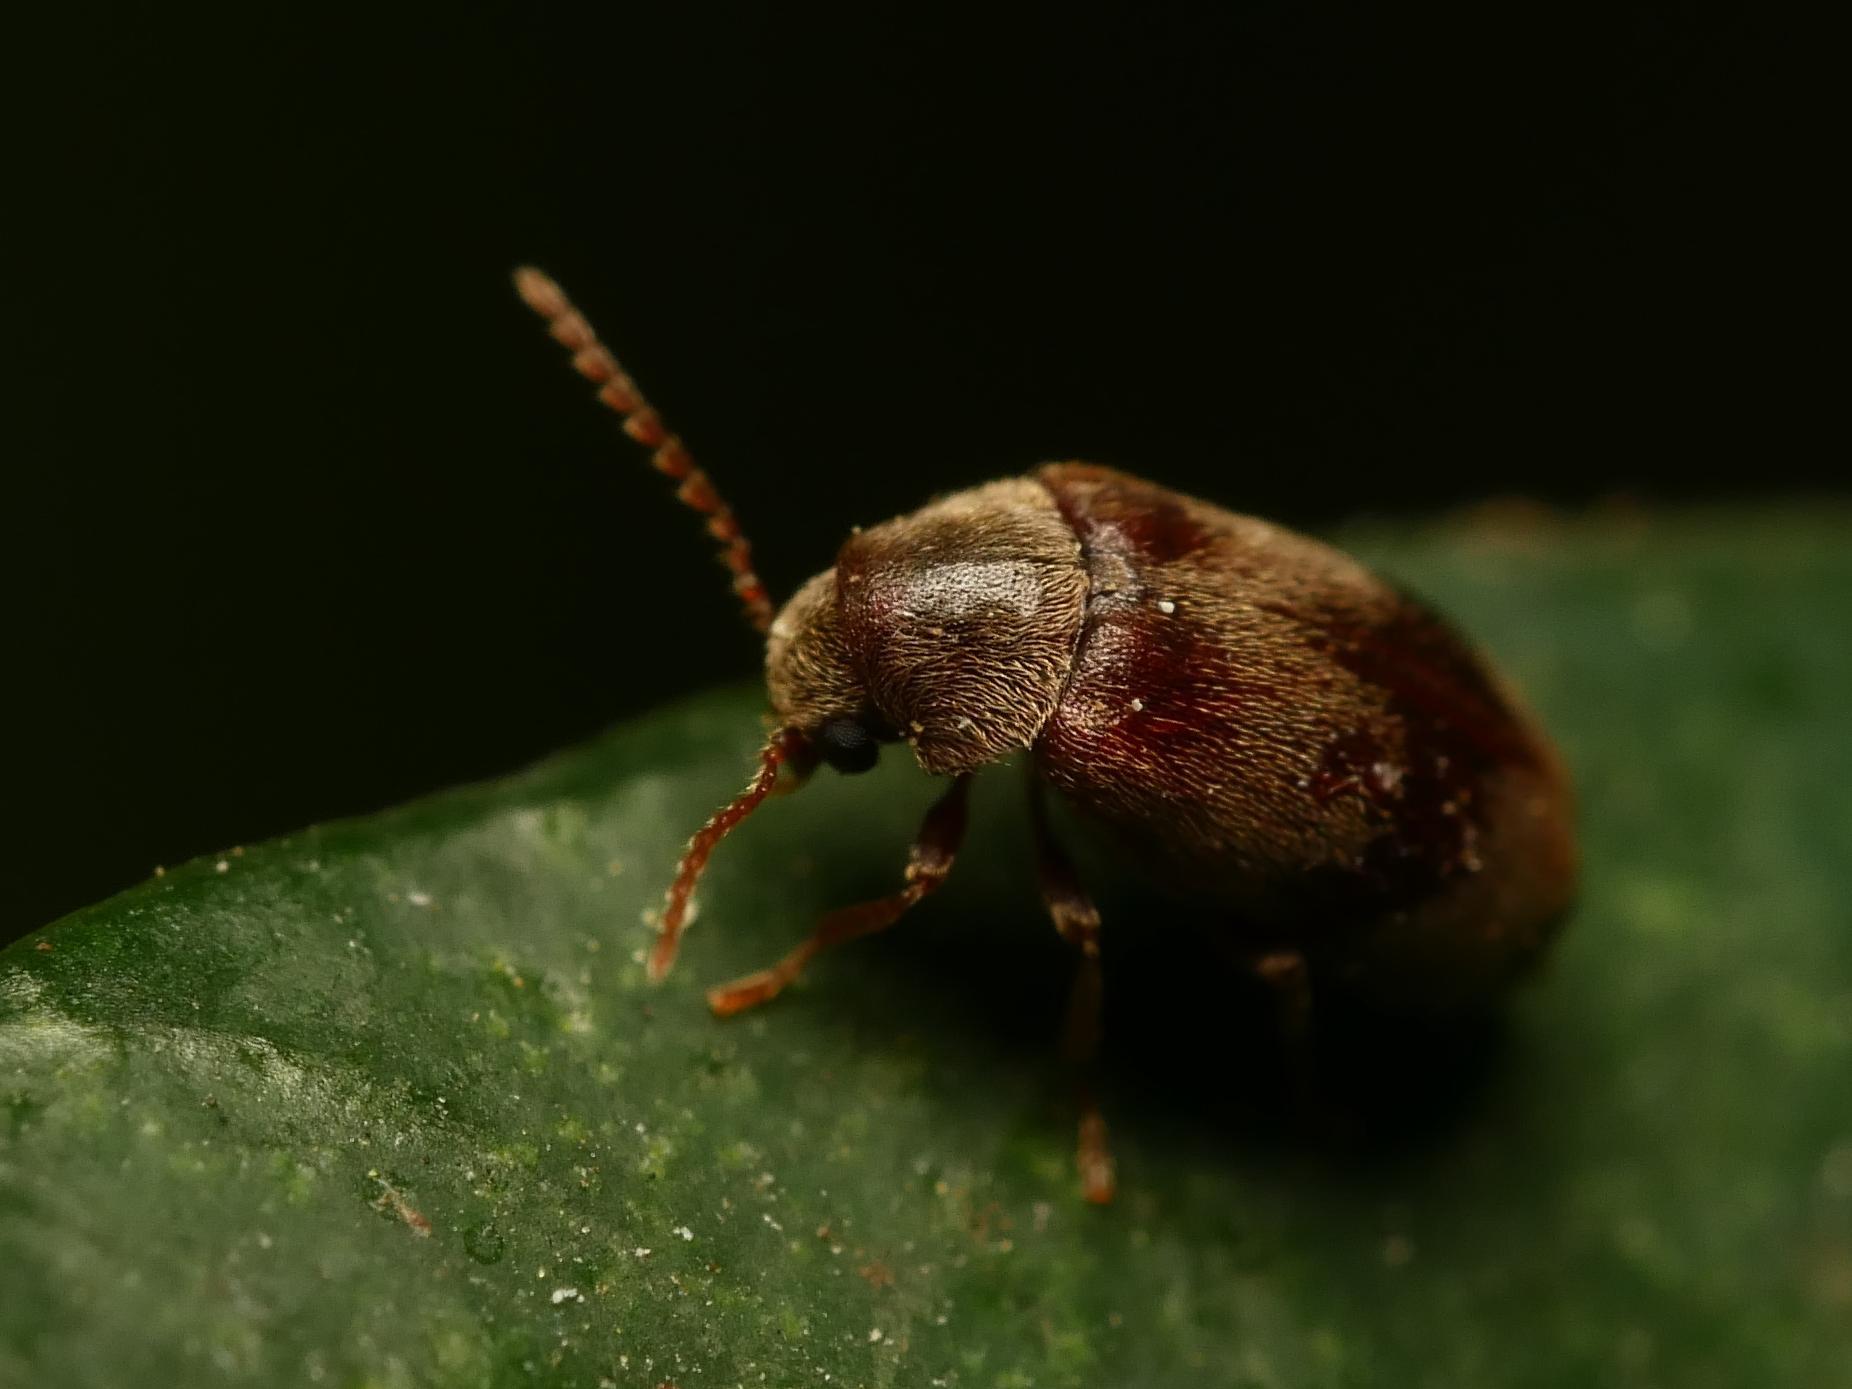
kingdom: Animalia
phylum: Arthropoda
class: Insecta
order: Coleoptera
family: Ptinidae
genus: Ochina
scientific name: Ochina ptinoides
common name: Ivy boring beetle
